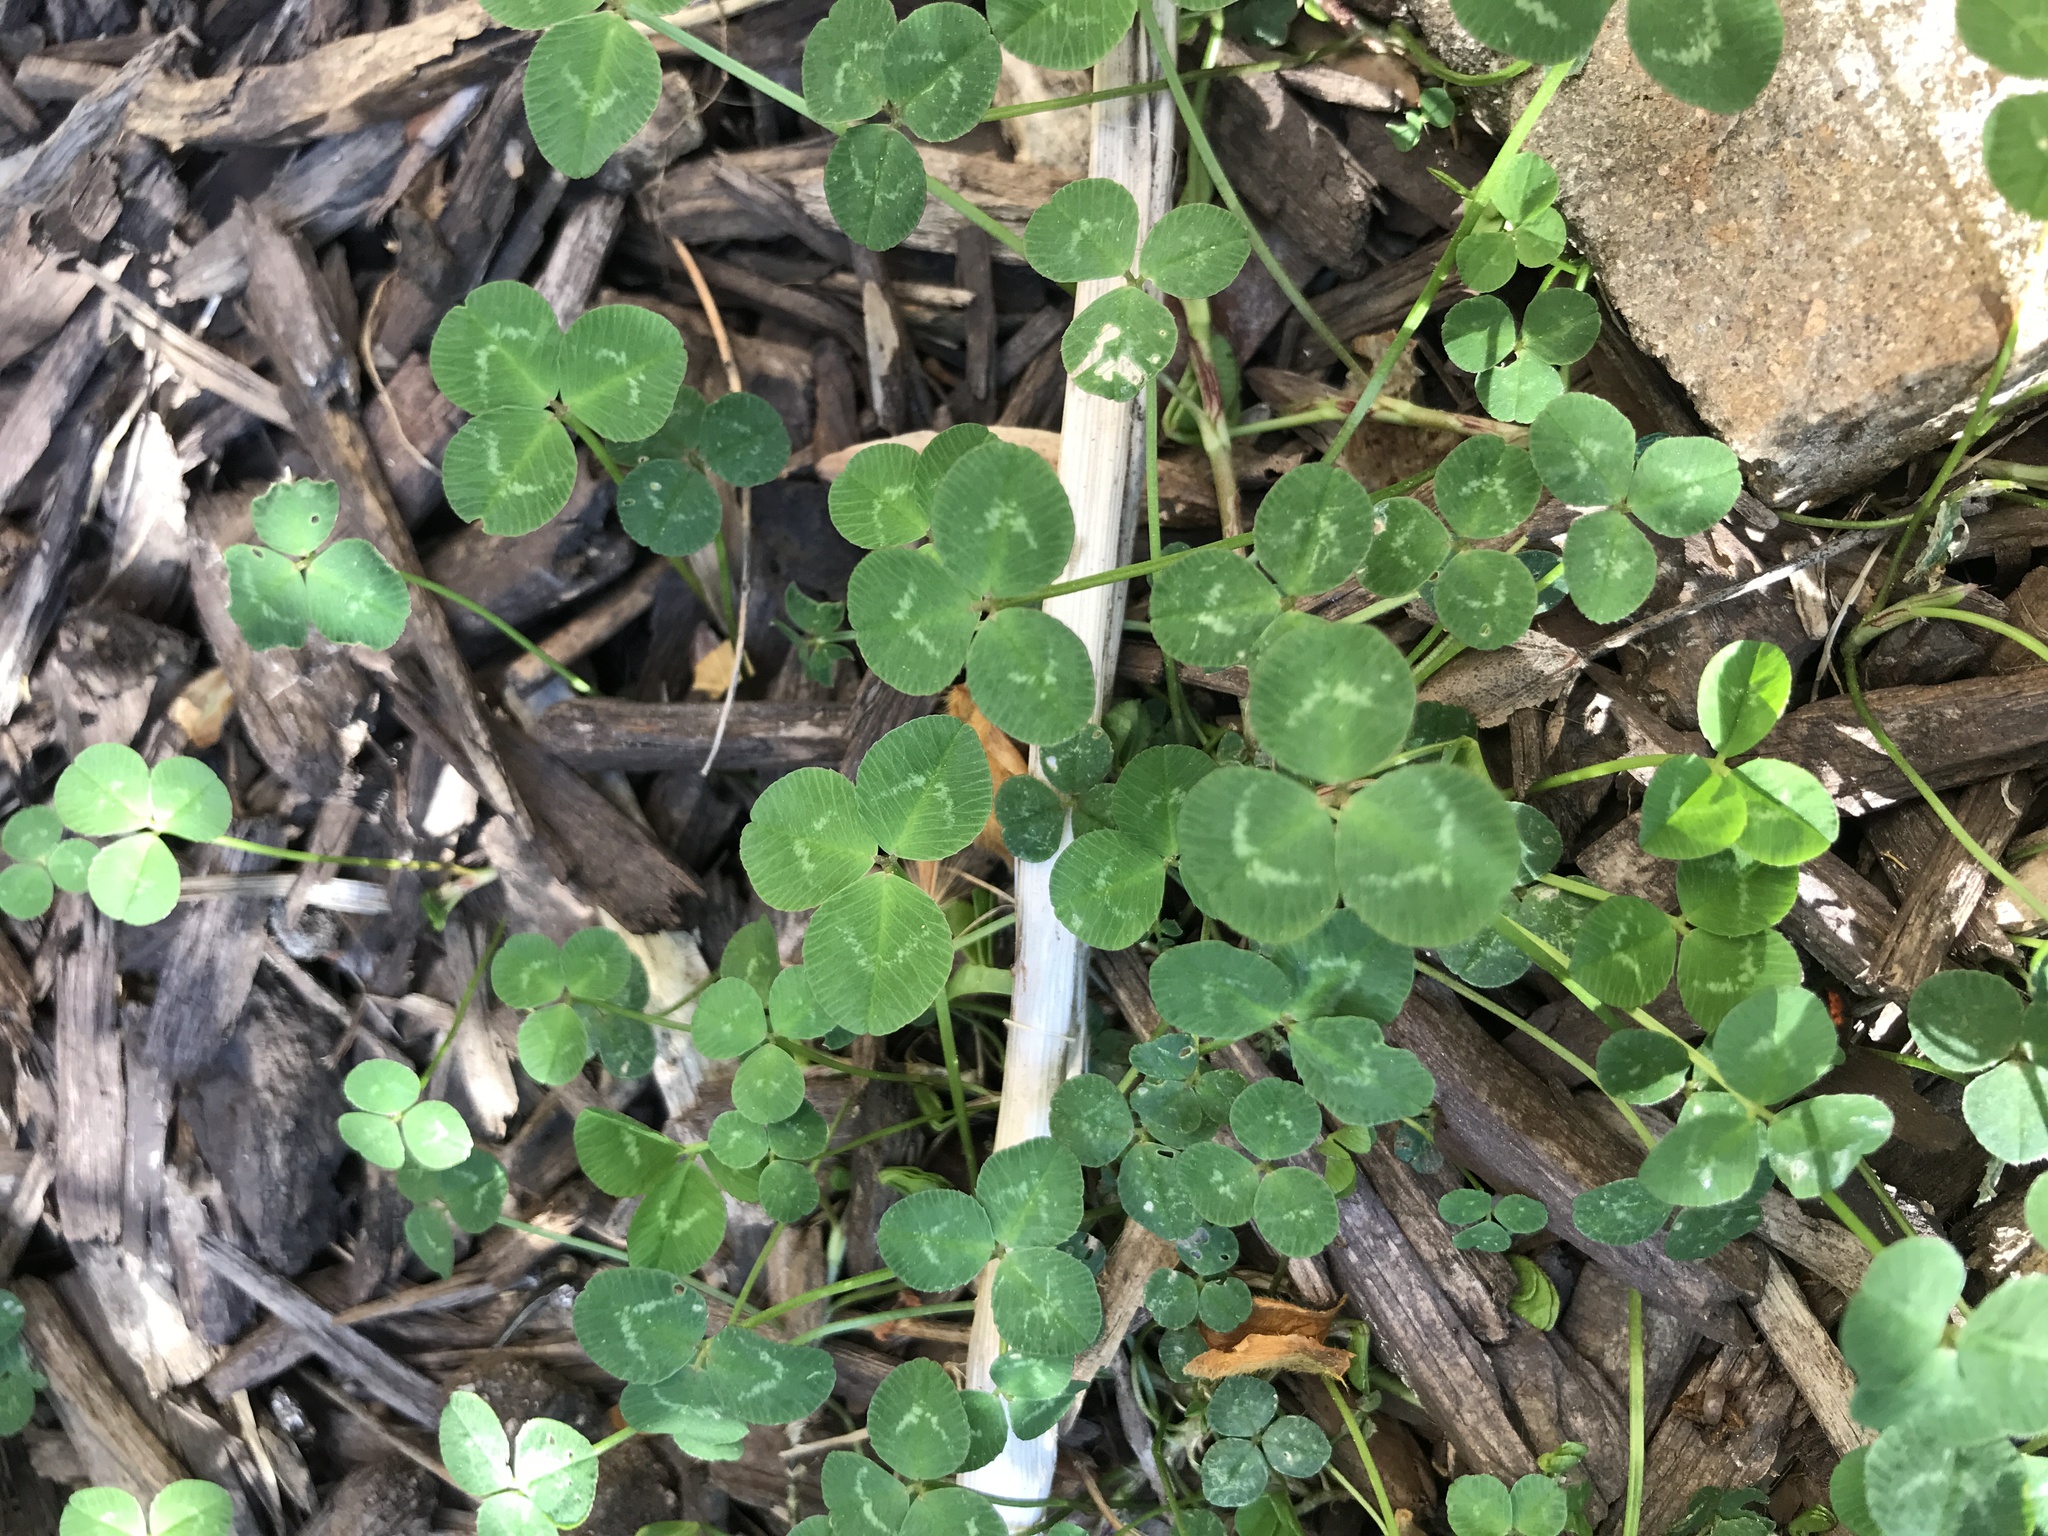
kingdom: Plantae
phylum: Tracheophyta
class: Magnoliopsida
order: Fabales
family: Fabaceae
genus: Trifolium
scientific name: Trifolium repens
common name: White clover
